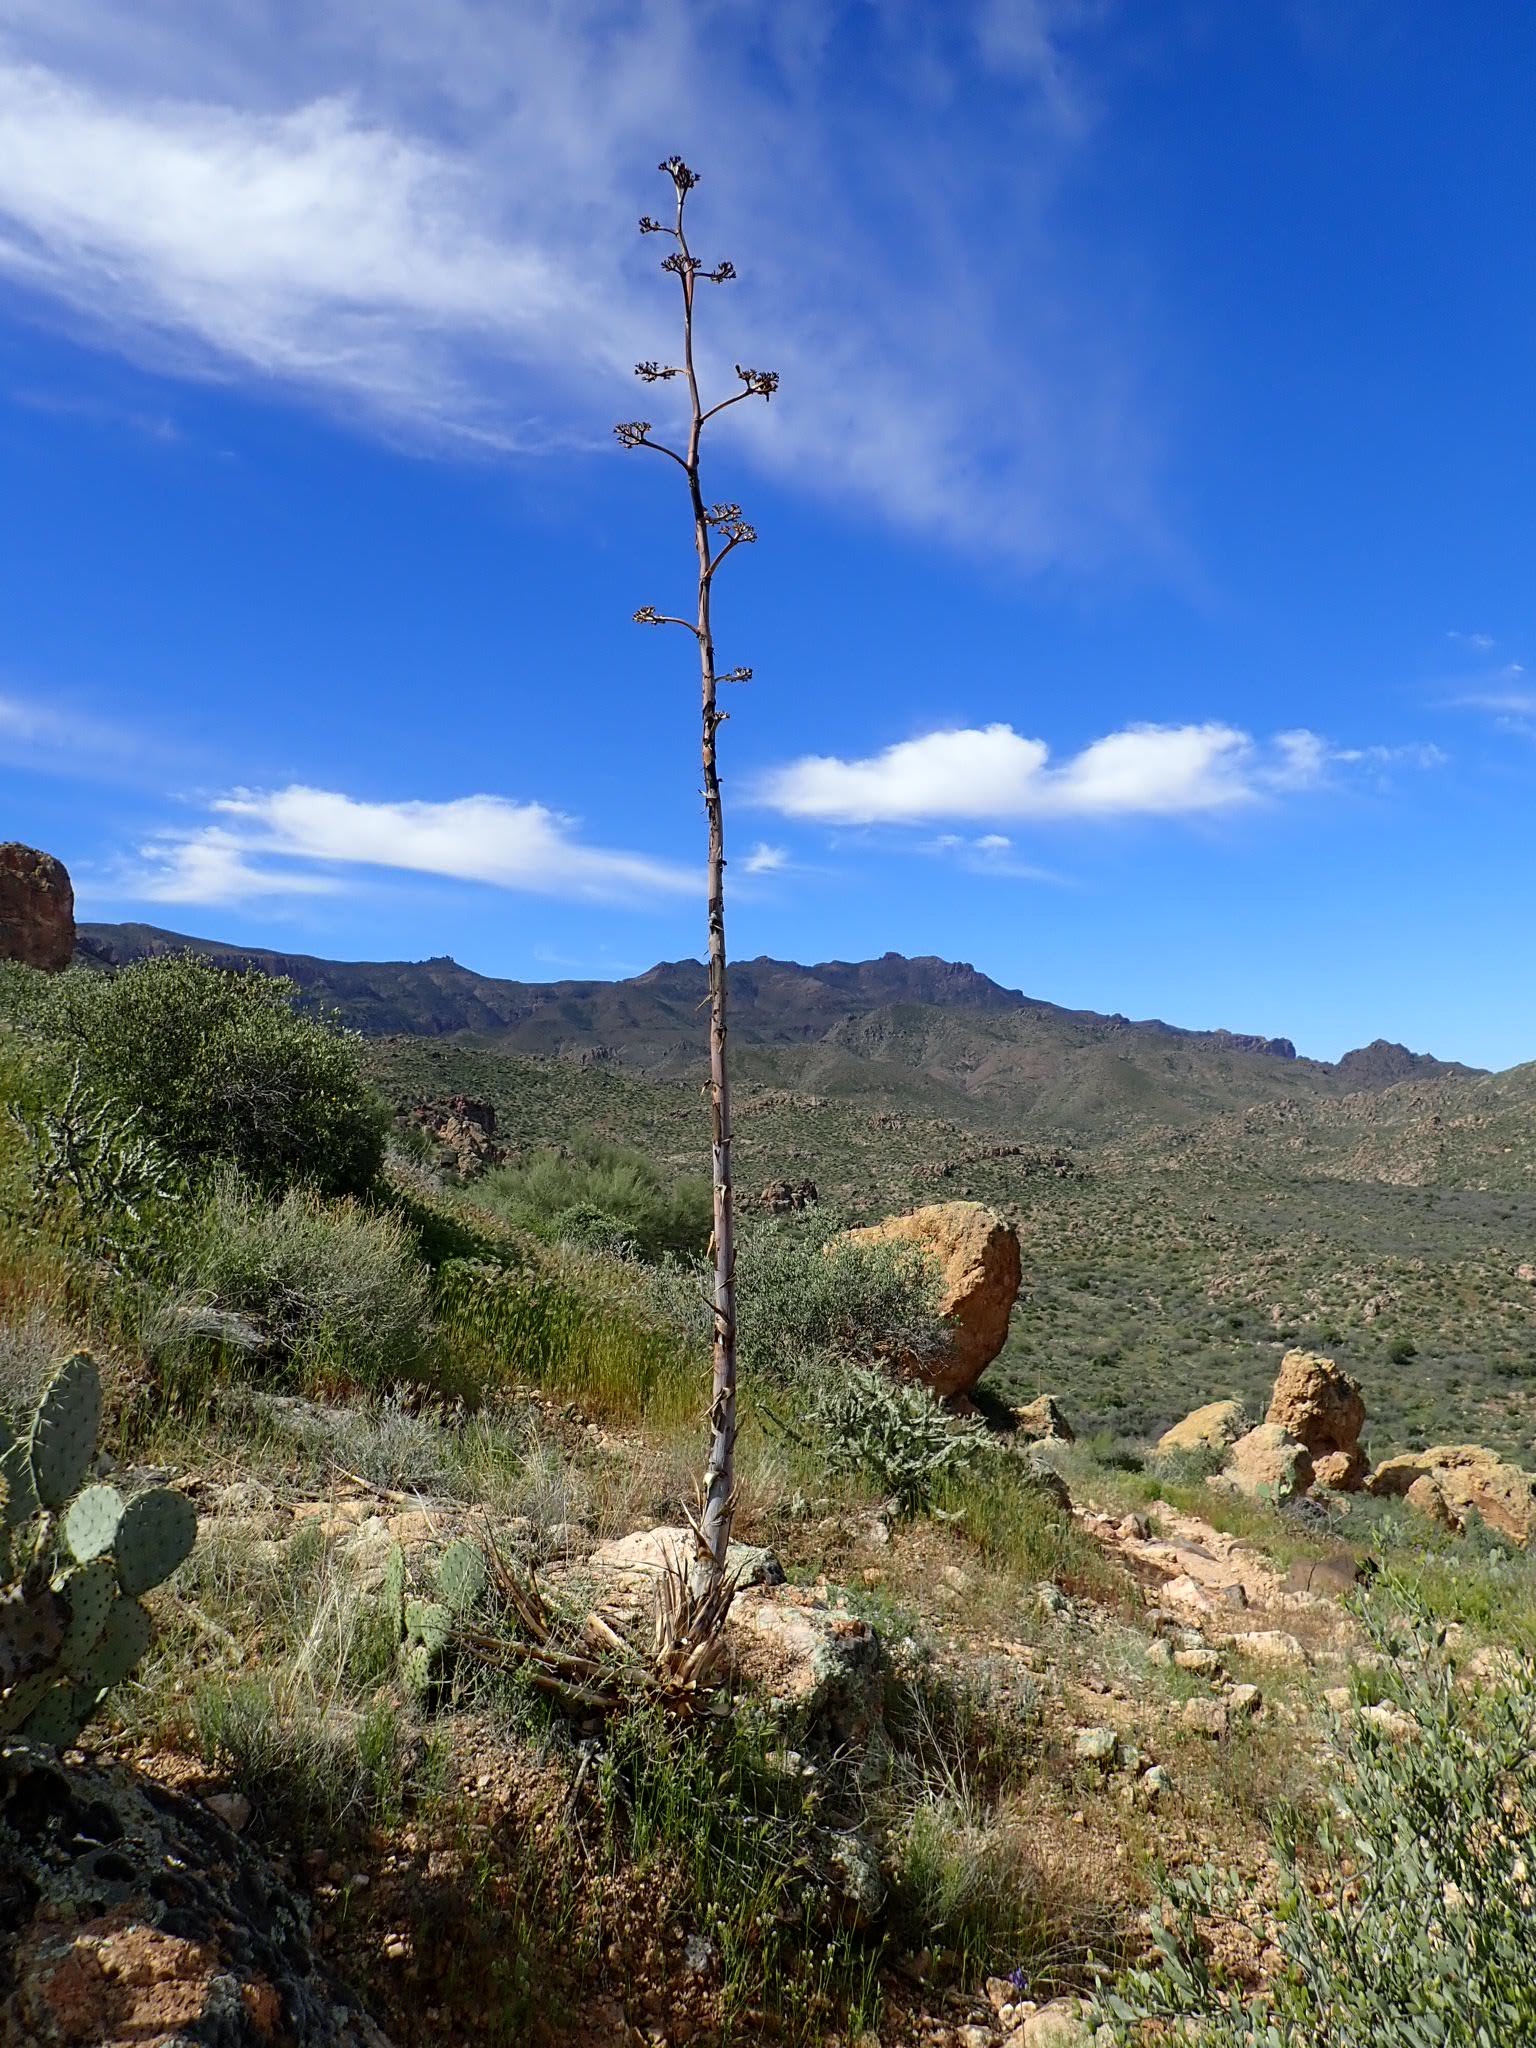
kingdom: Plantae
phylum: Tracheophyta
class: Liliopsida
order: Asparagales
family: Asparagaceae
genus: Agave
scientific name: Agave chrysantha
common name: Golden-flowered agave
